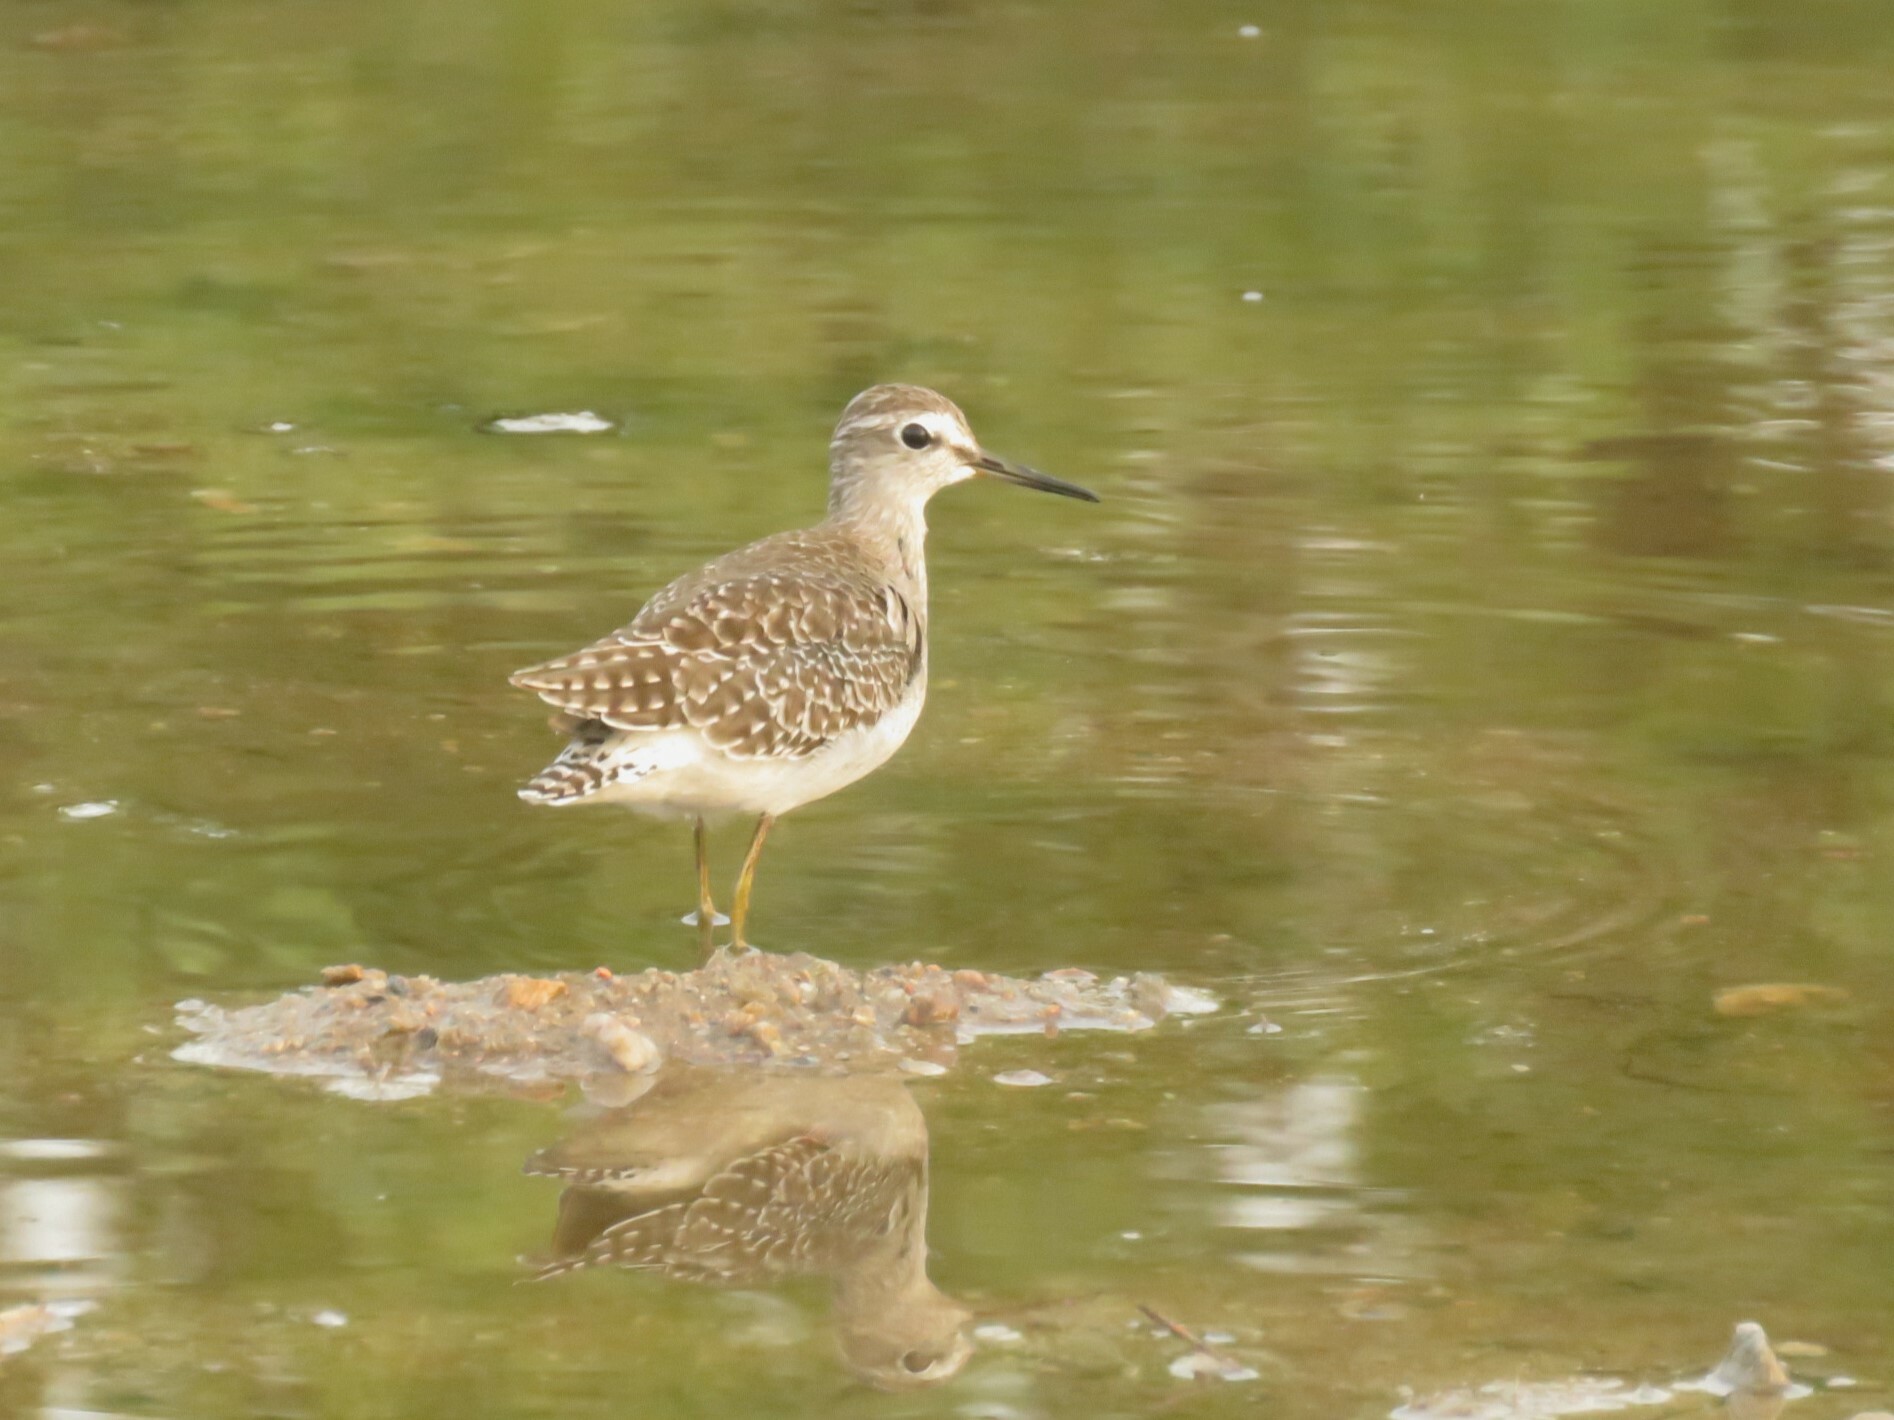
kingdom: Animalia
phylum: Chordata
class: Aves
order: Charadriiformes
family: Scolopacidae
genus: Tringa
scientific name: Tringa glareola
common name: Wood sandpiper
